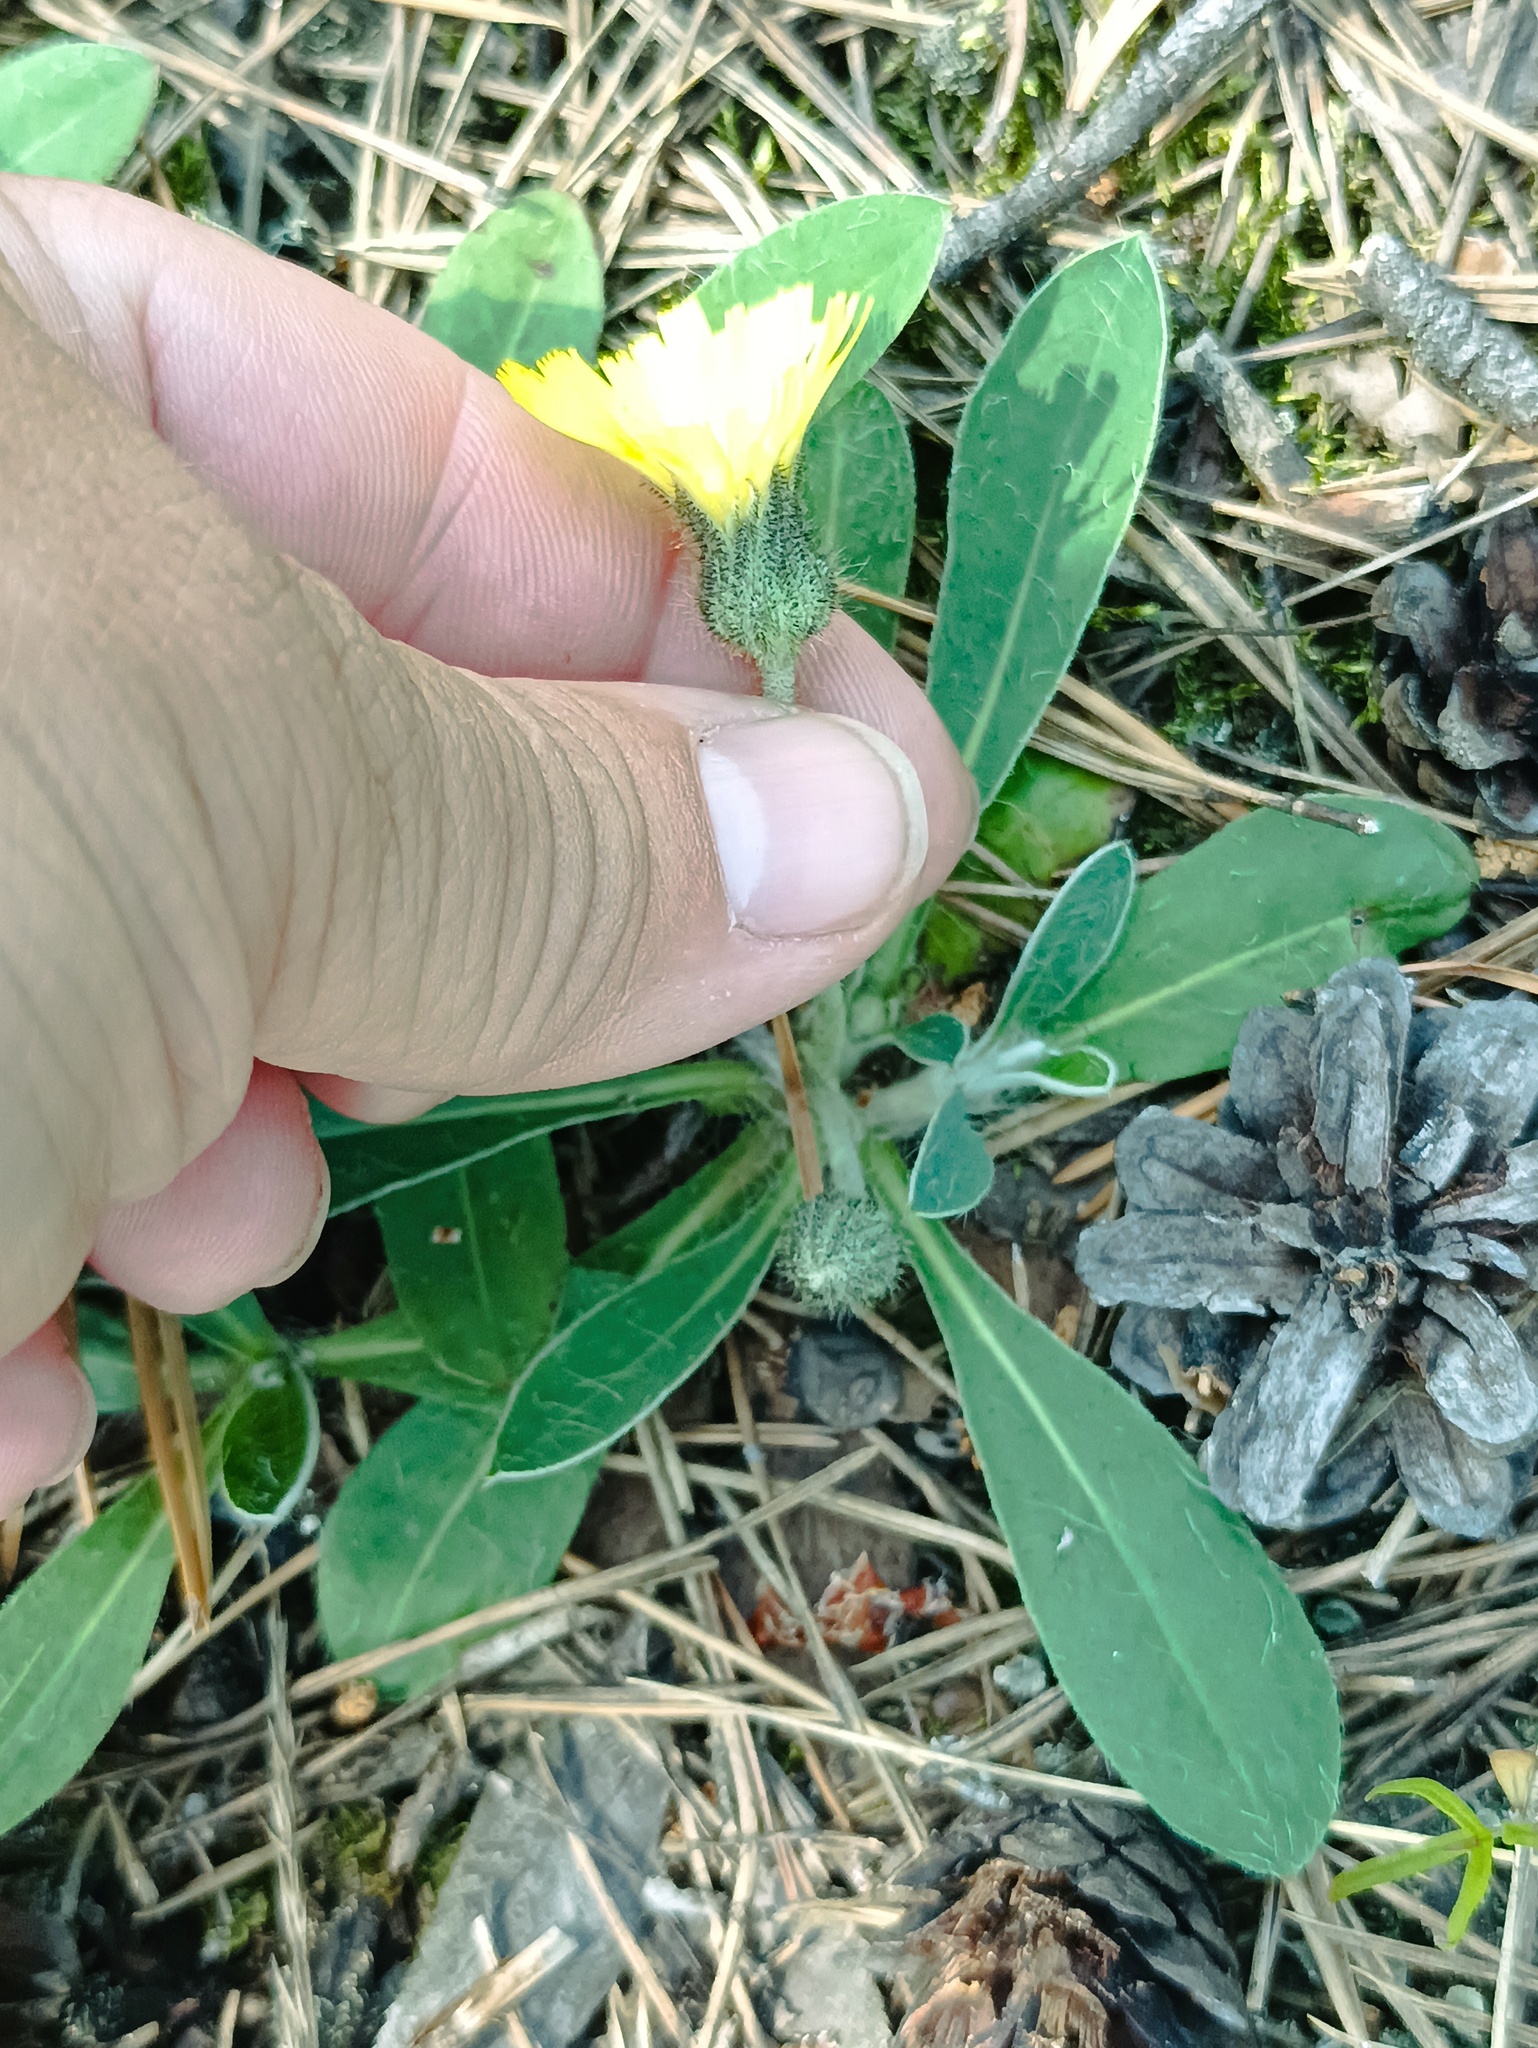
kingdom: Plantae
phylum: Tracheophyta
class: Magnoliopsida
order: Asterales
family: Asteraceae
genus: Pilosella
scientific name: Pilosella officinarum
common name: Mouse-ear hawkweed
